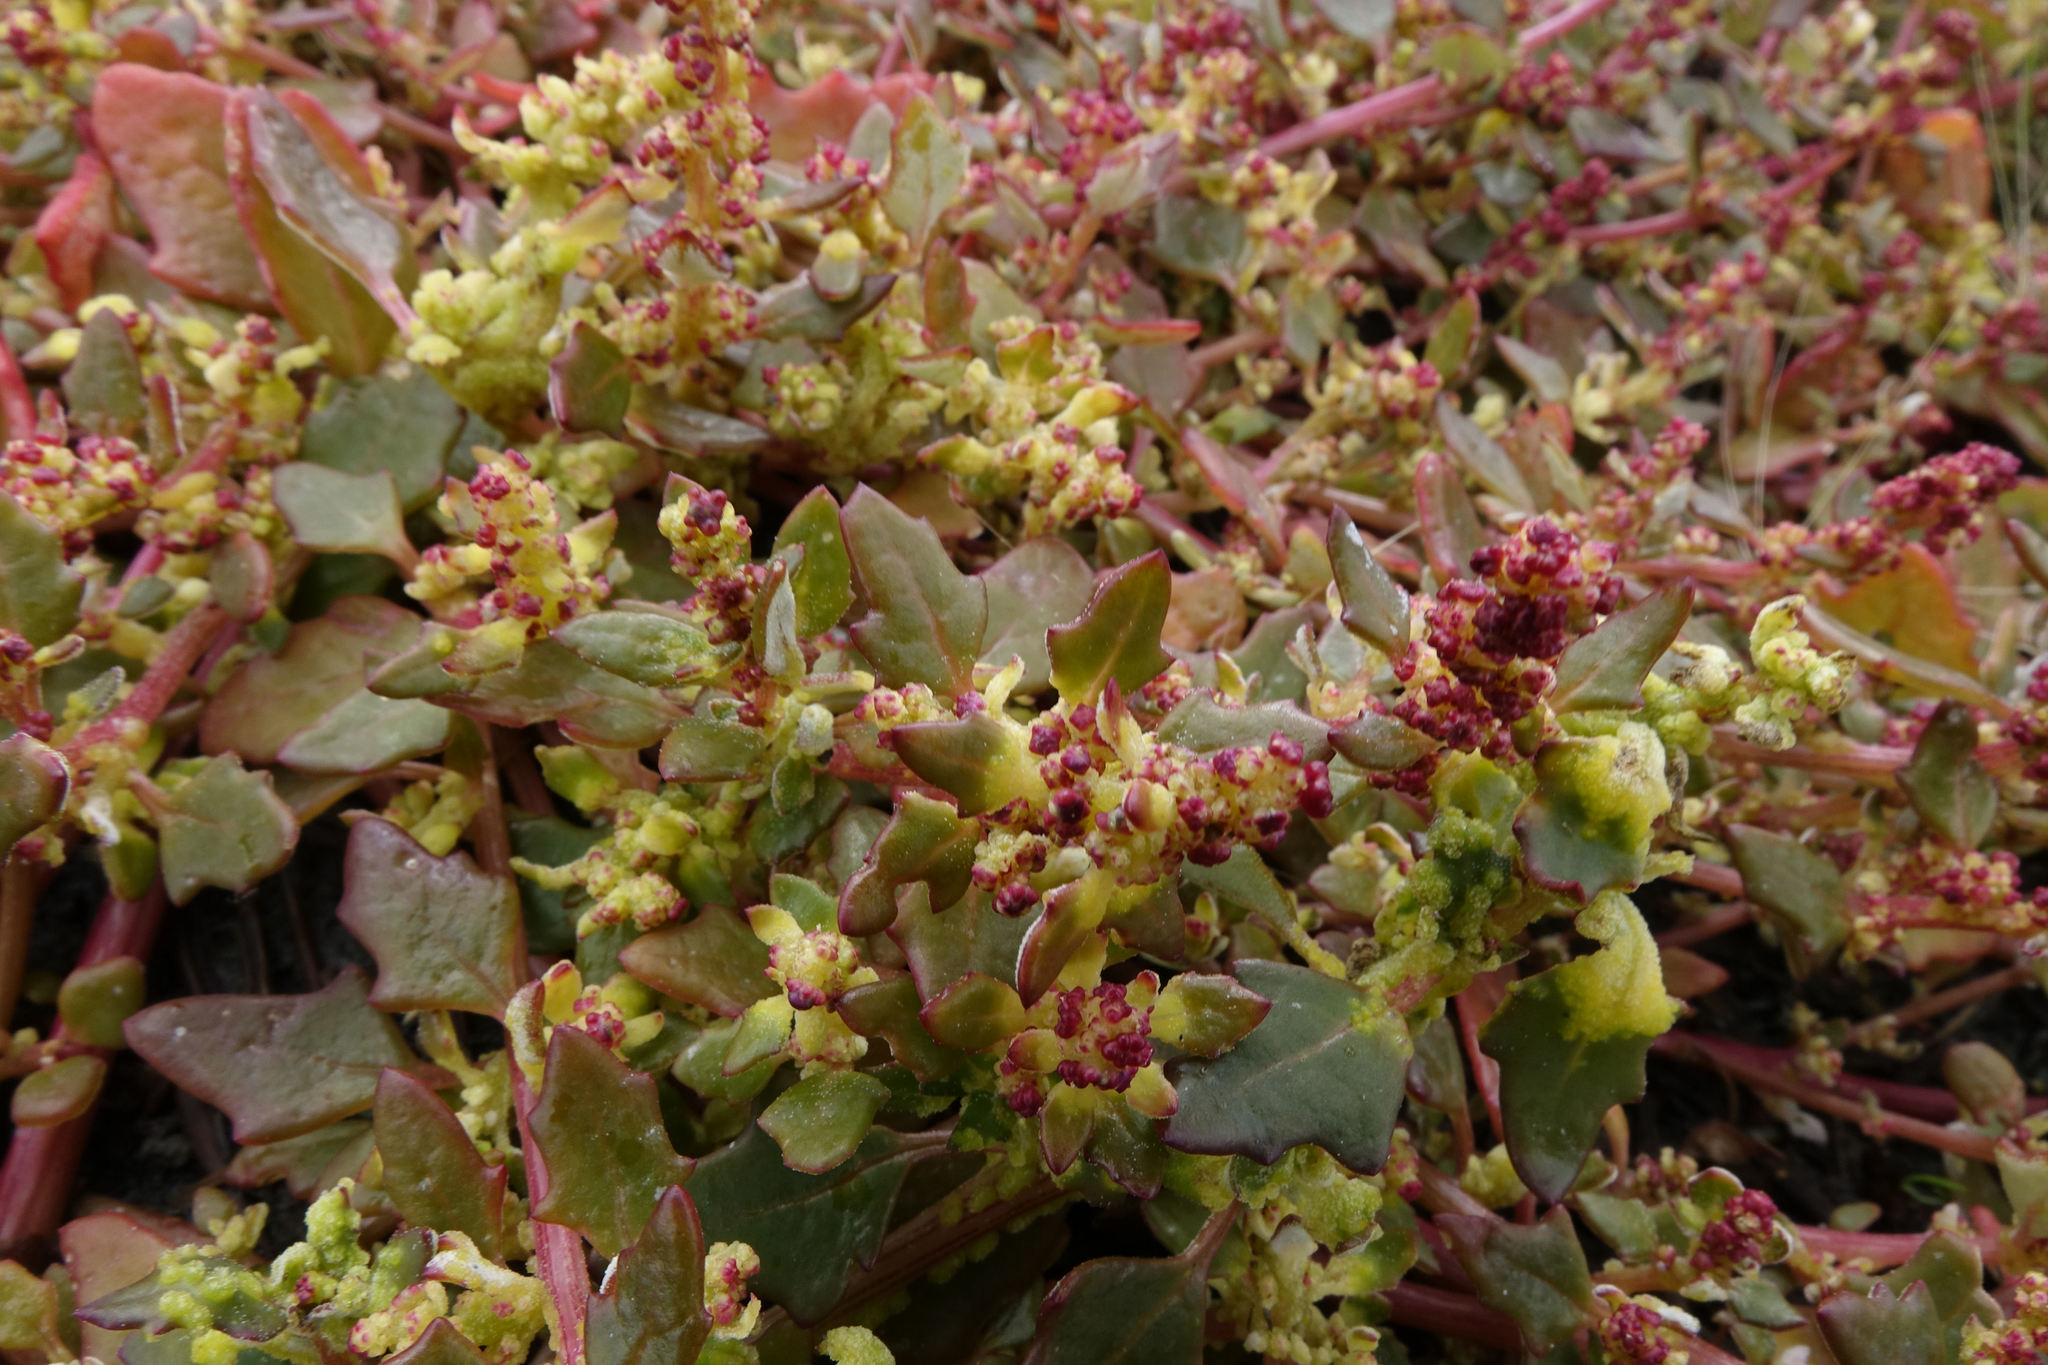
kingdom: Plantae
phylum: Tracheophyta
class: Magnoliopsida
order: Caryophyllales
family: Amaranthaceae
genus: Oxybasis
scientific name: Oxybasis ambigua
